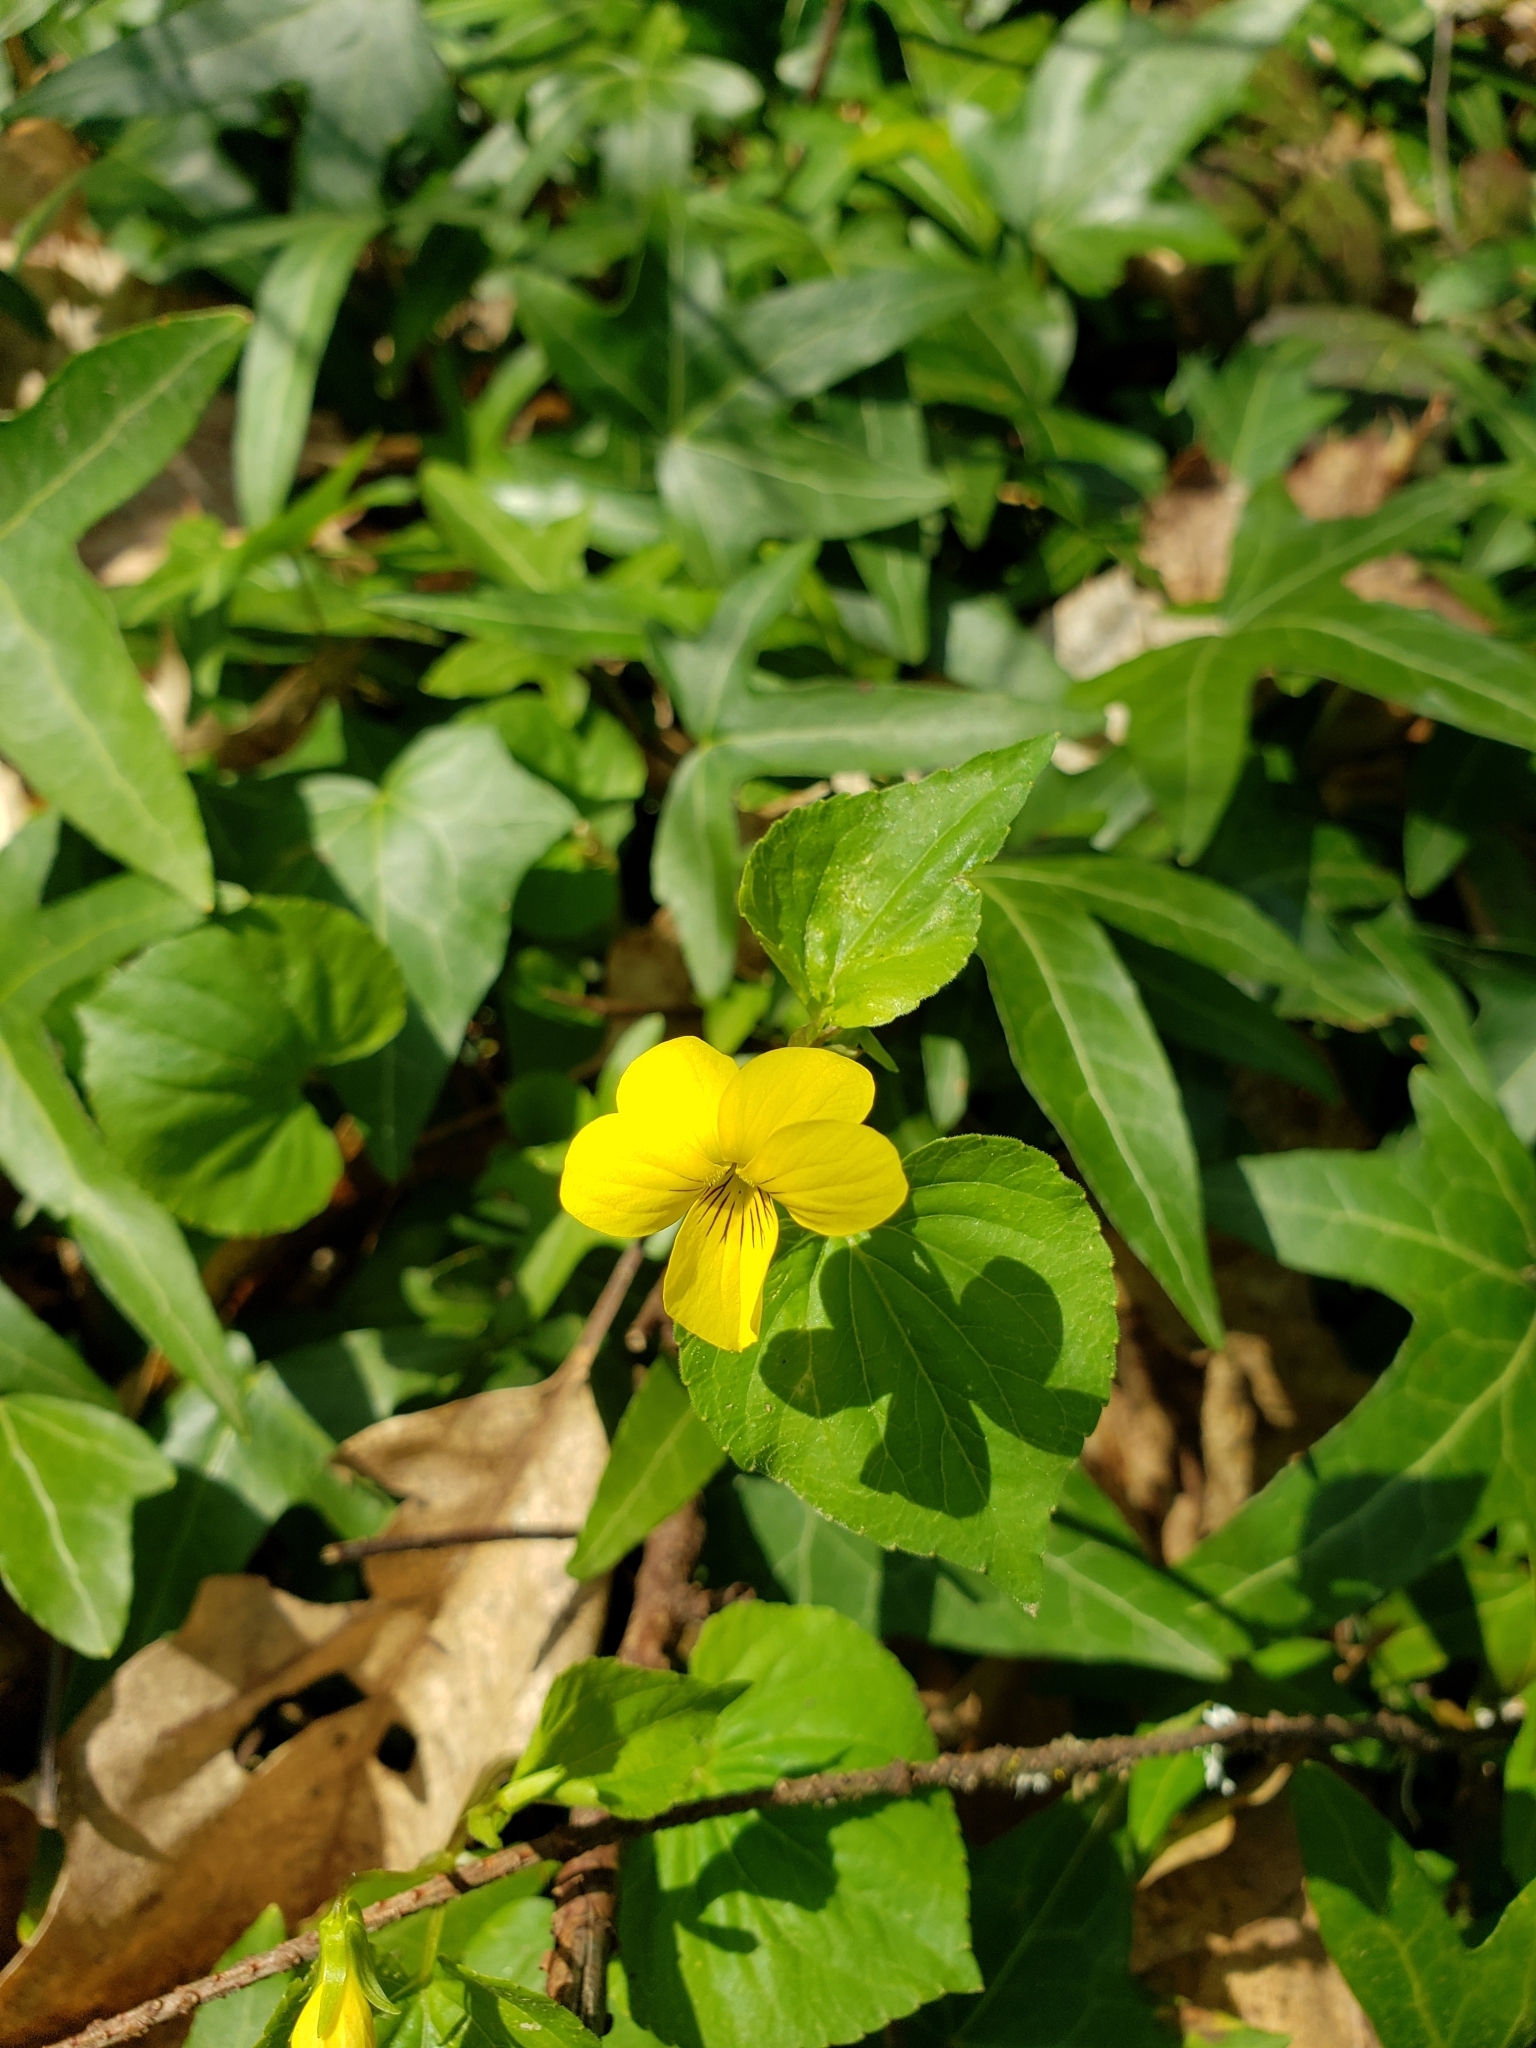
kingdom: Plantae
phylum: Tracheophyta
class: Magnoliopsida
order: Malpighiales
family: Violaceae
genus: Viola
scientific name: Viola glabella
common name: Stream violet
